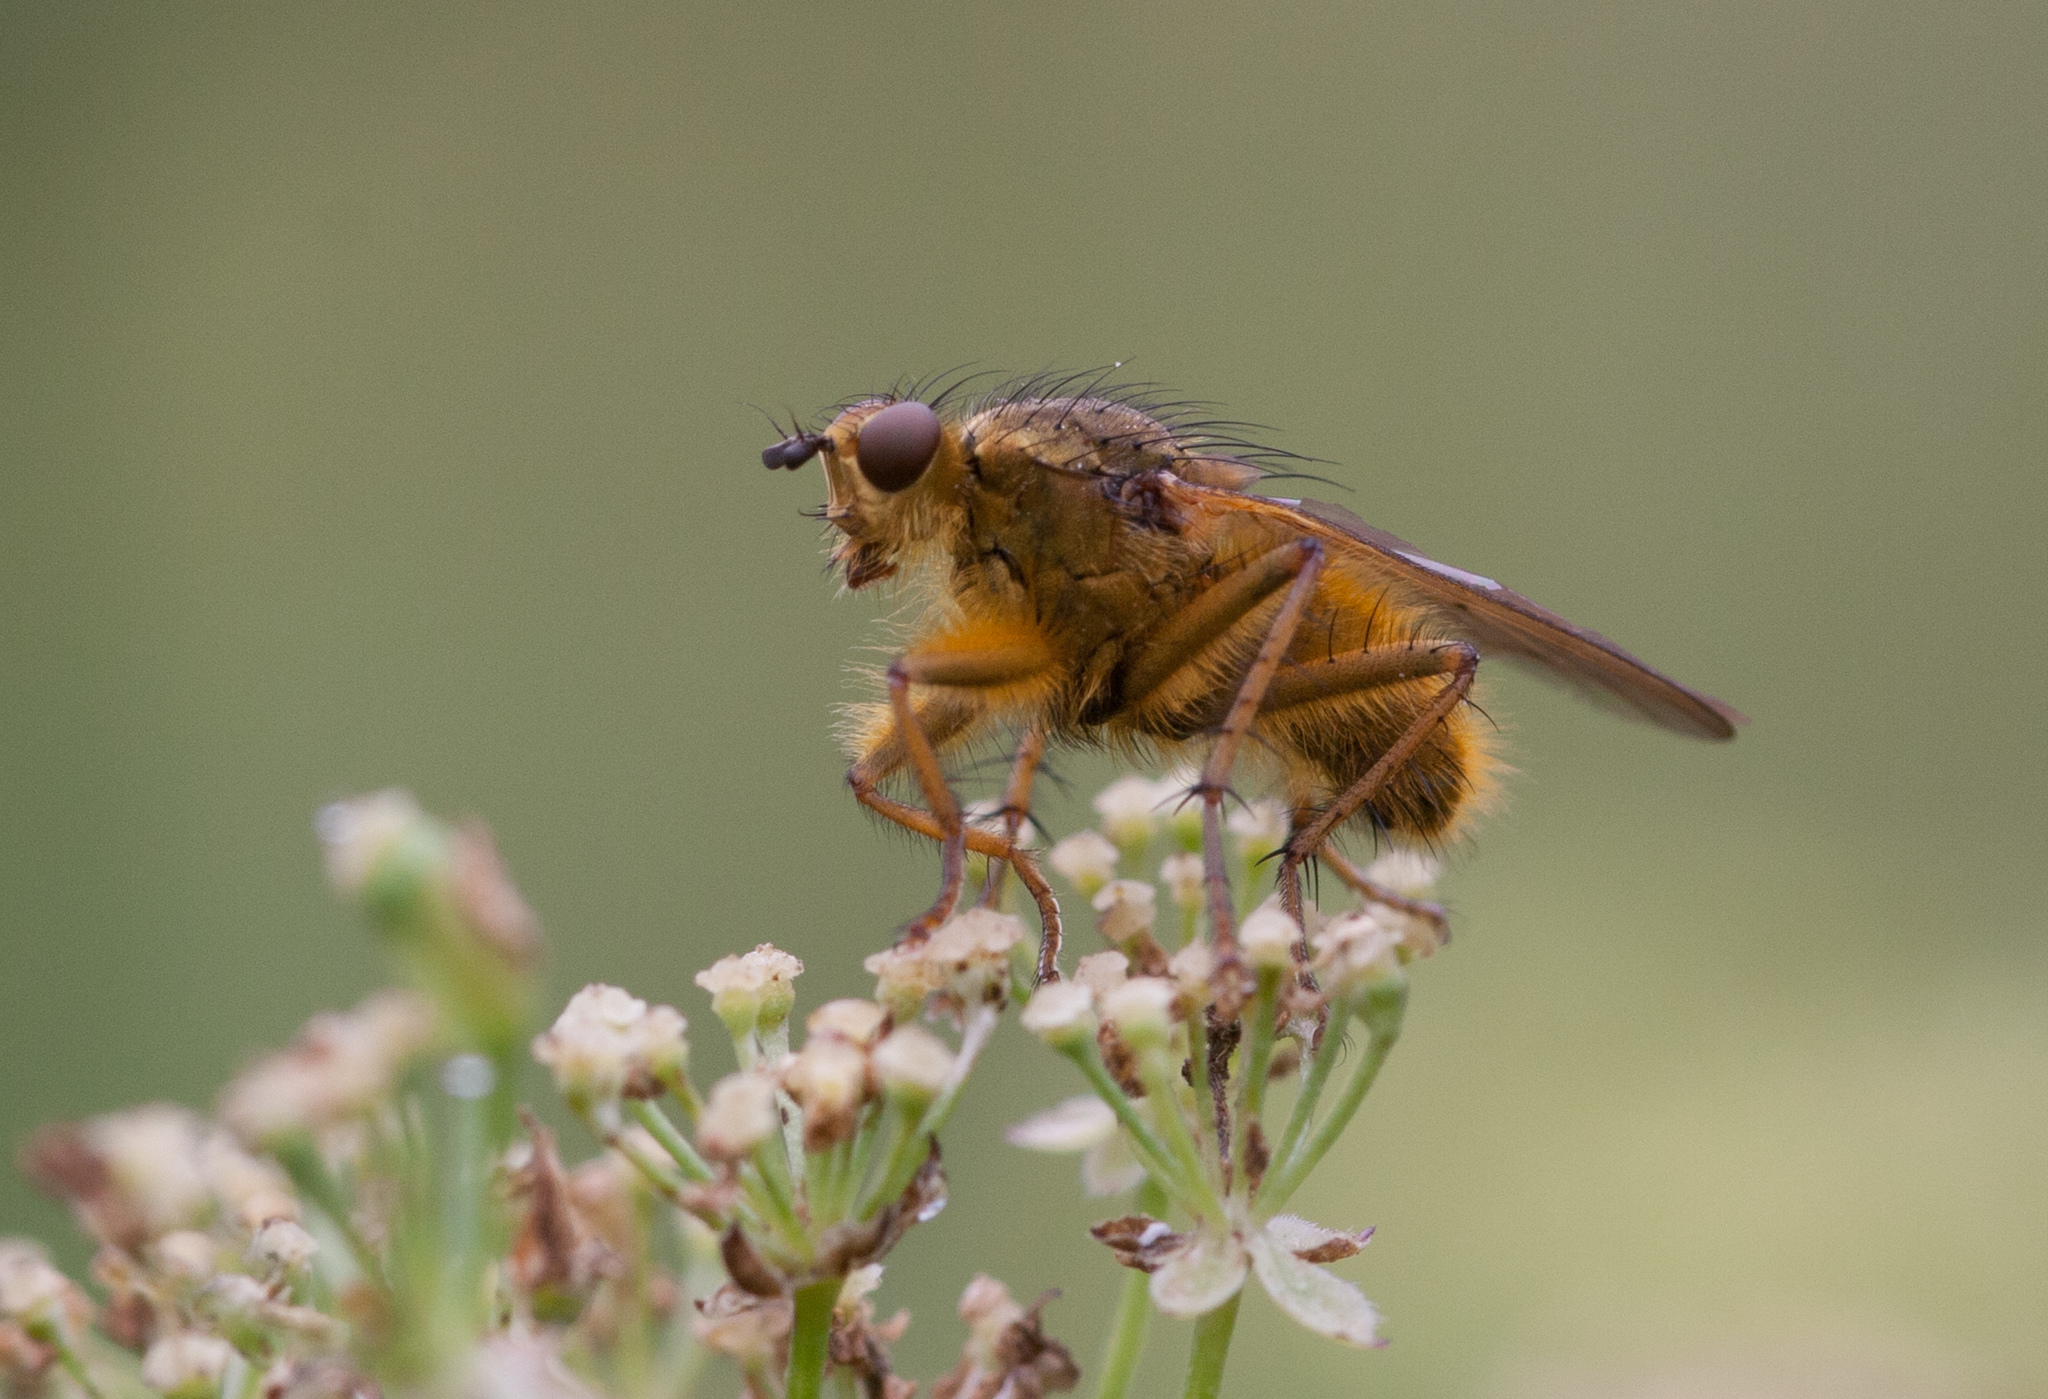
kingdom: Animalia
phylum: Arthropoda
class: Insecta
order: Diptera
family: Scathophagidae
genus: Scathophaga
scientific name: Scathophaga stercoraria
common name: Yellow dung fly
